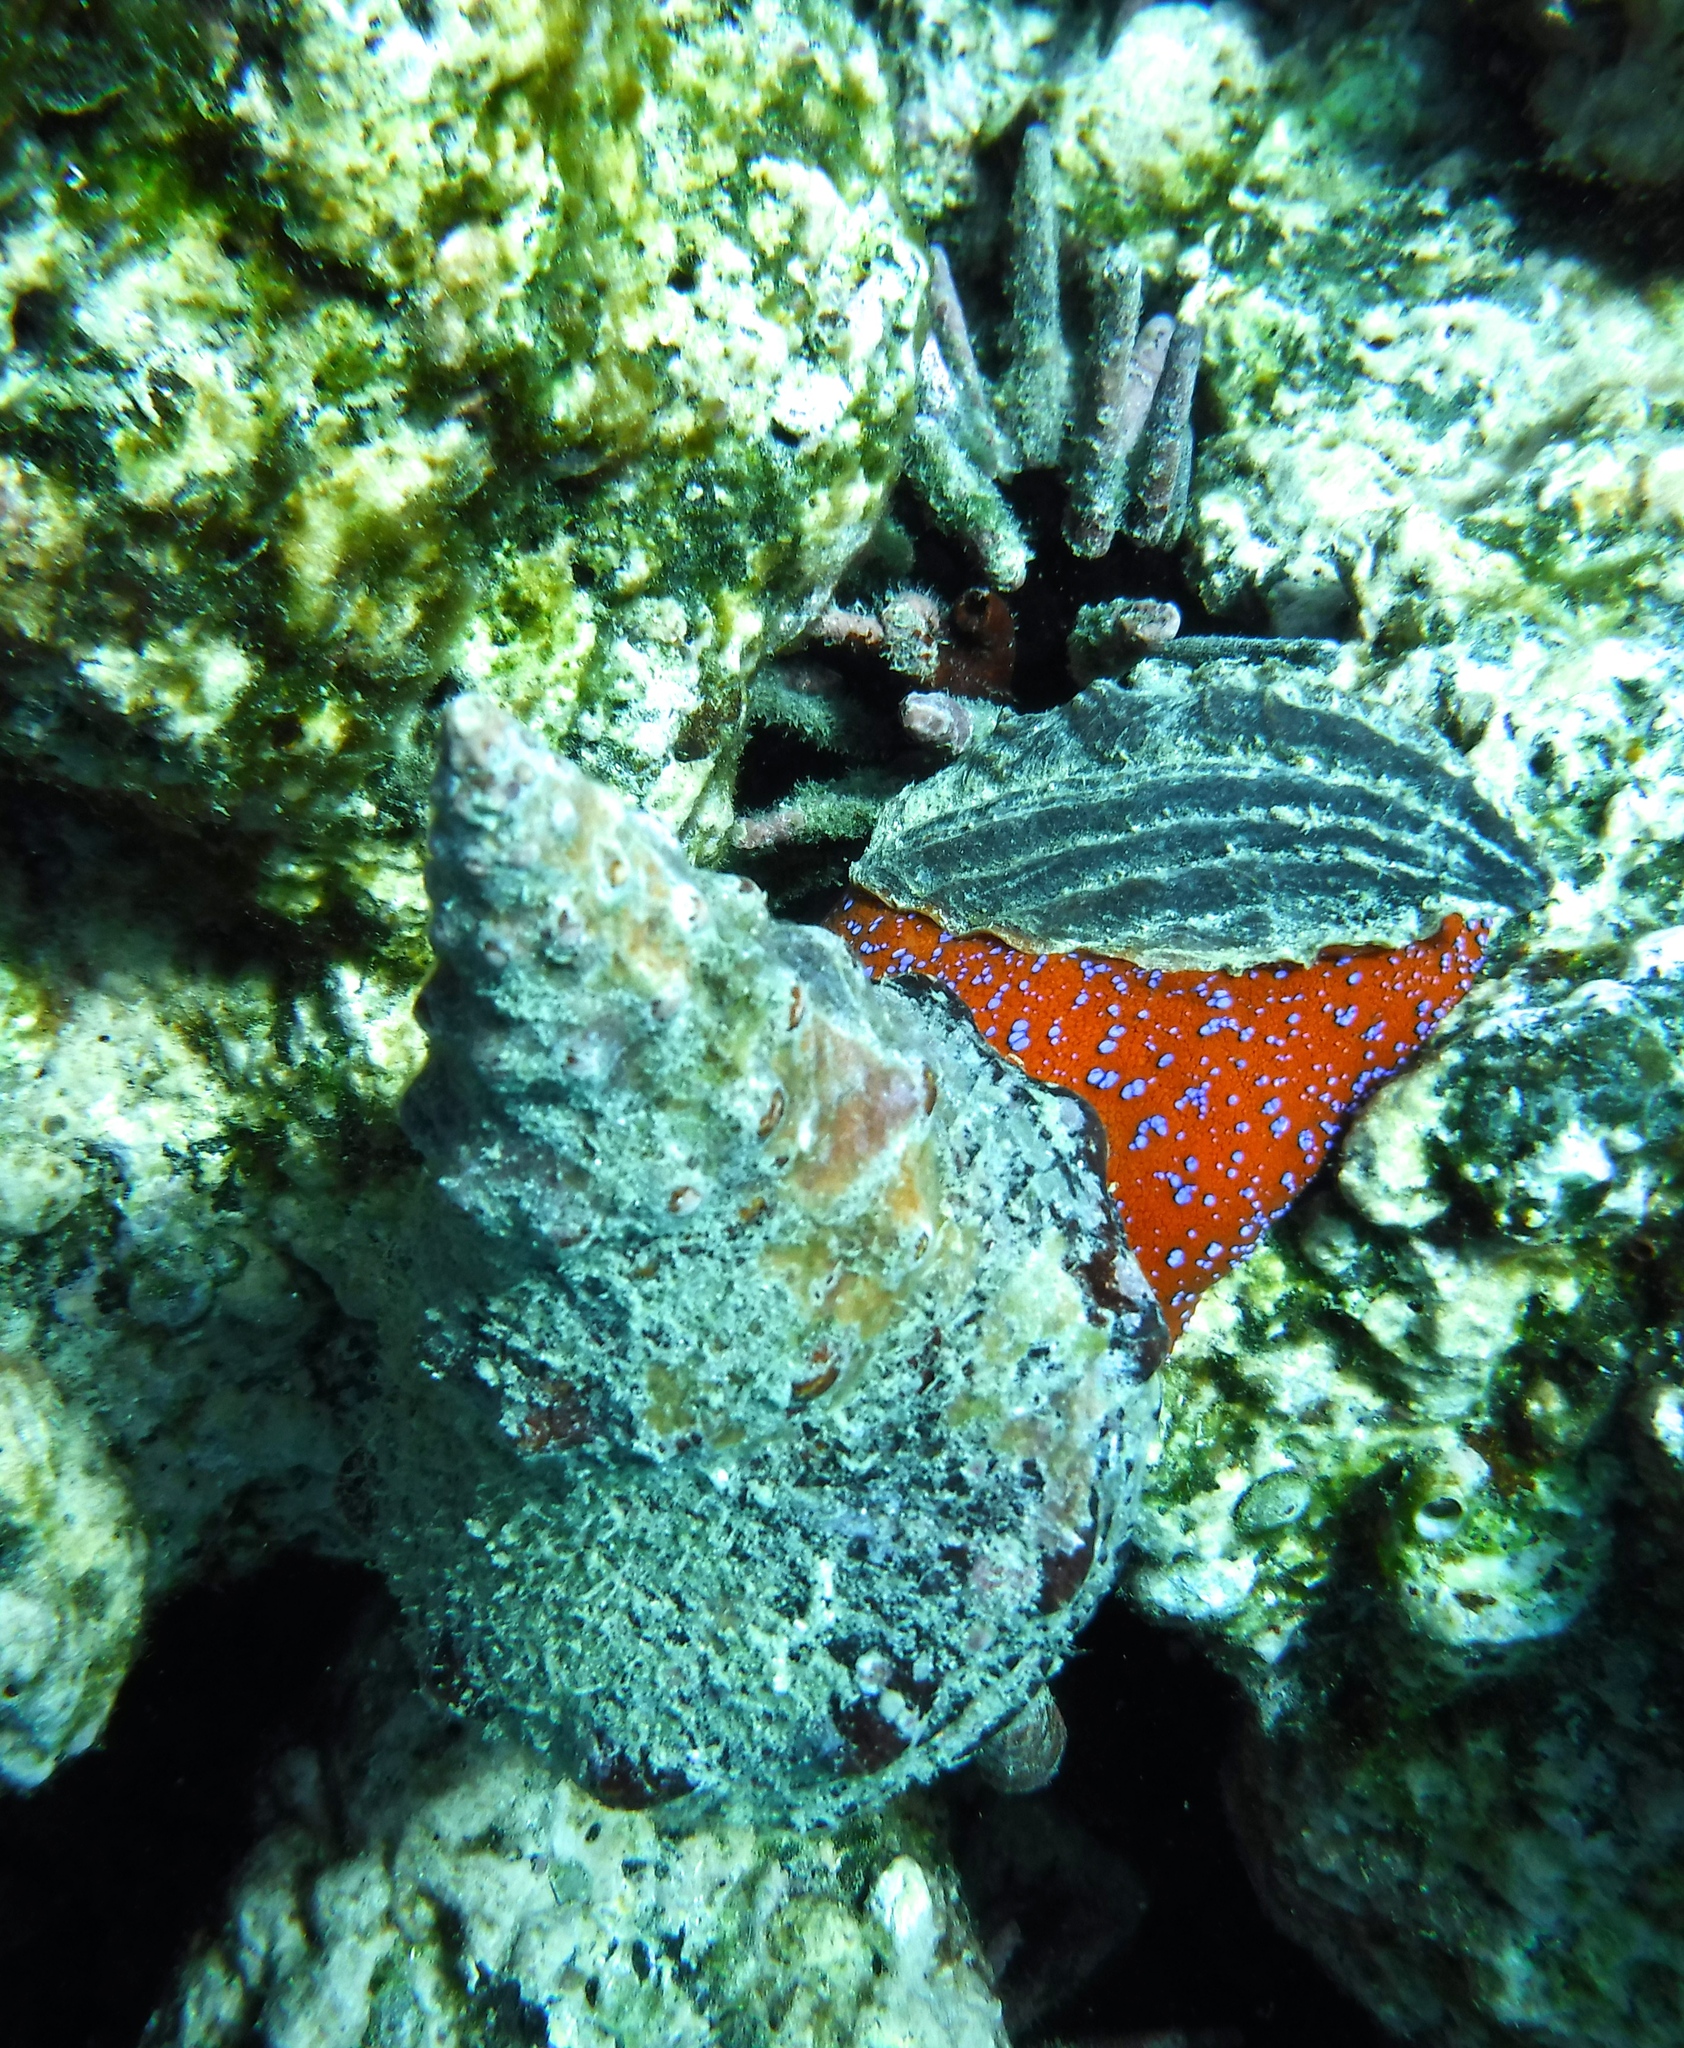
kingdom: Animalia
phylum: Mollusca
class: Gastropoda
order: Neogastropoda
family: Fasciolariidae
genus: Triplofusus
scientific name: Triplofusus princeps
